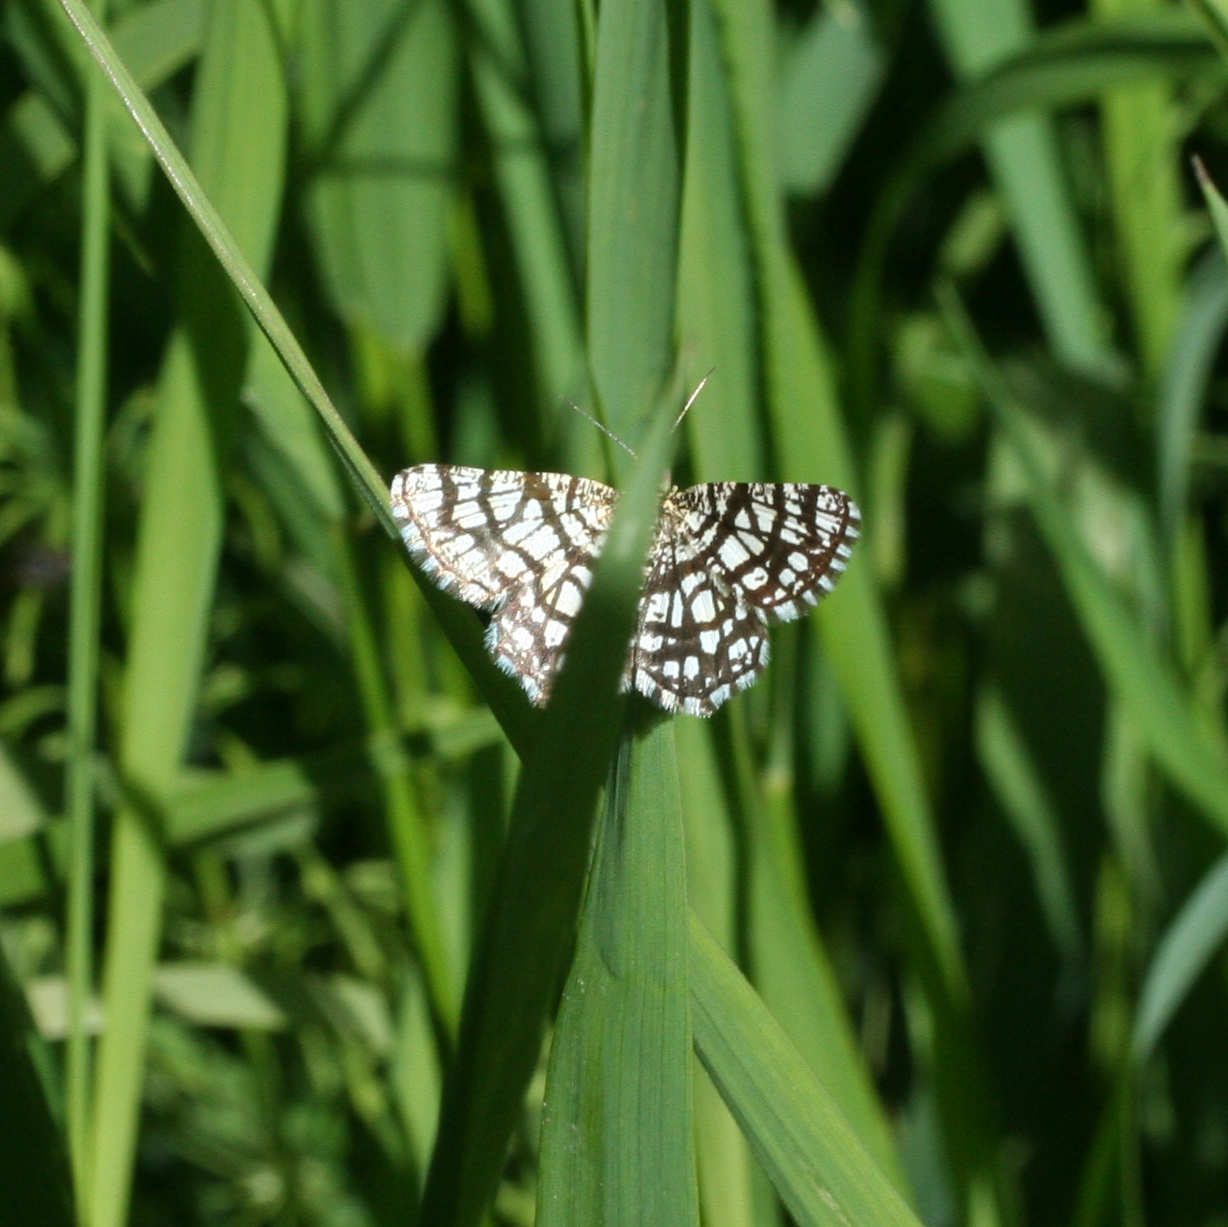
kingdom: Animalia
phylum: Arthropoda
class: Insecta
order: Lepidoptera
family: Geometridae
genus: Chiasmia
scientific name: Chiasmia clathrata
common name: Latticed heath
